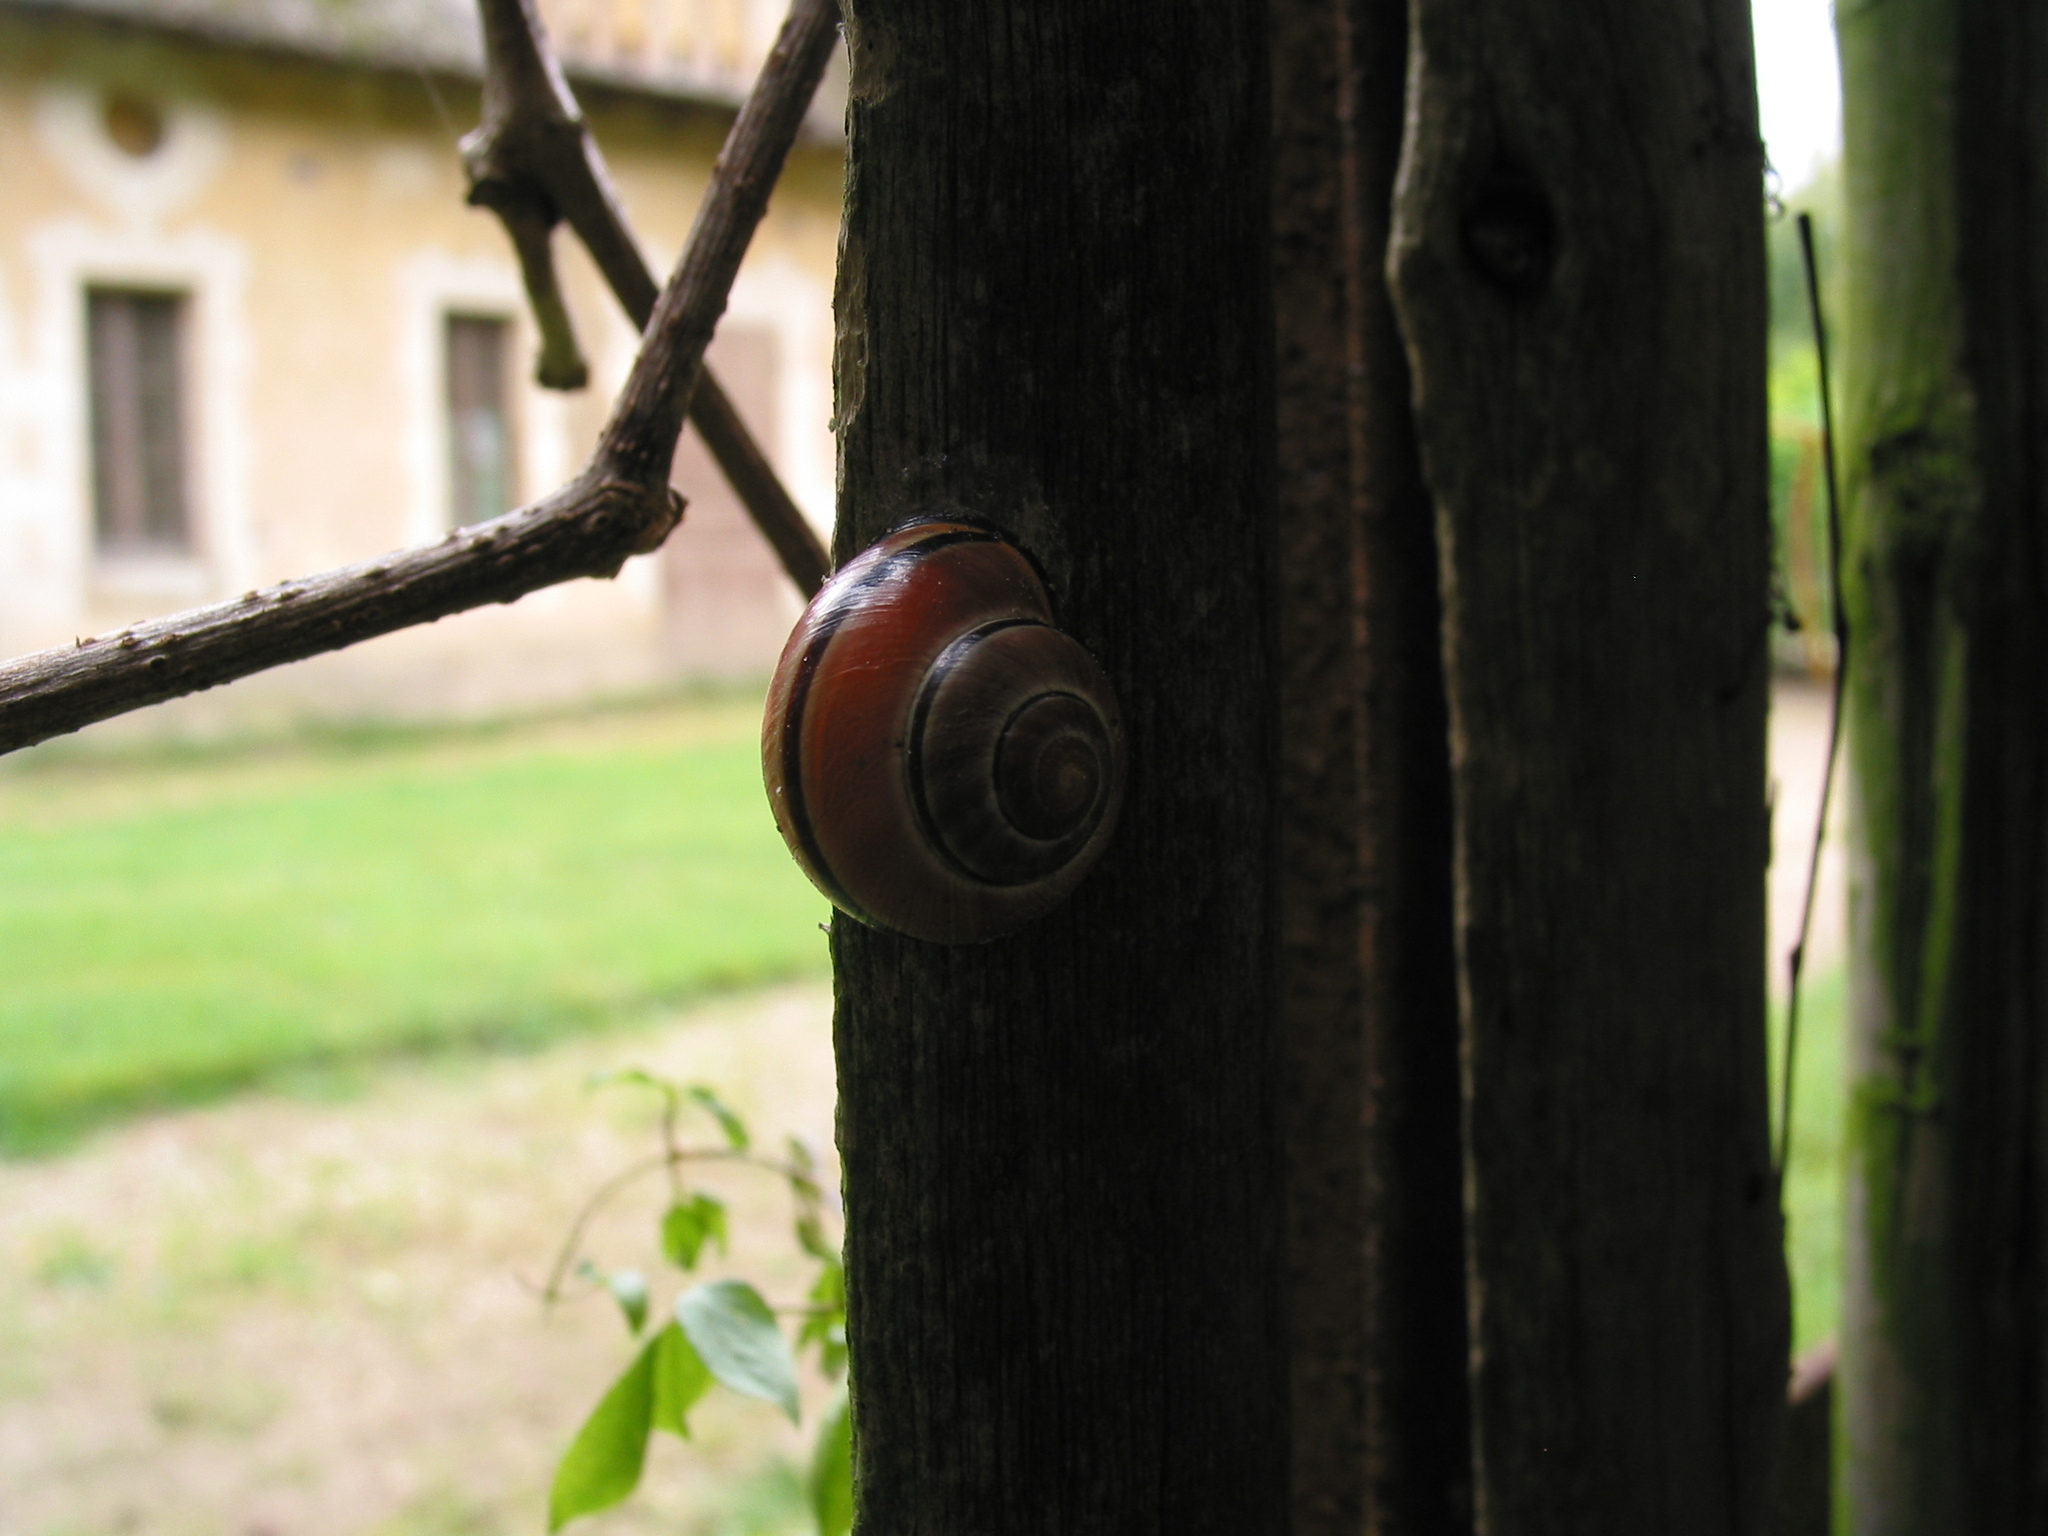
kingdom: Animalia
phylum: Mollusca
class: Gastropoda
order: Stylommatophora
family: Helicidae
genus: Cepaea
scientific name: Cepaea nemoralis
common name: Grovesnail
